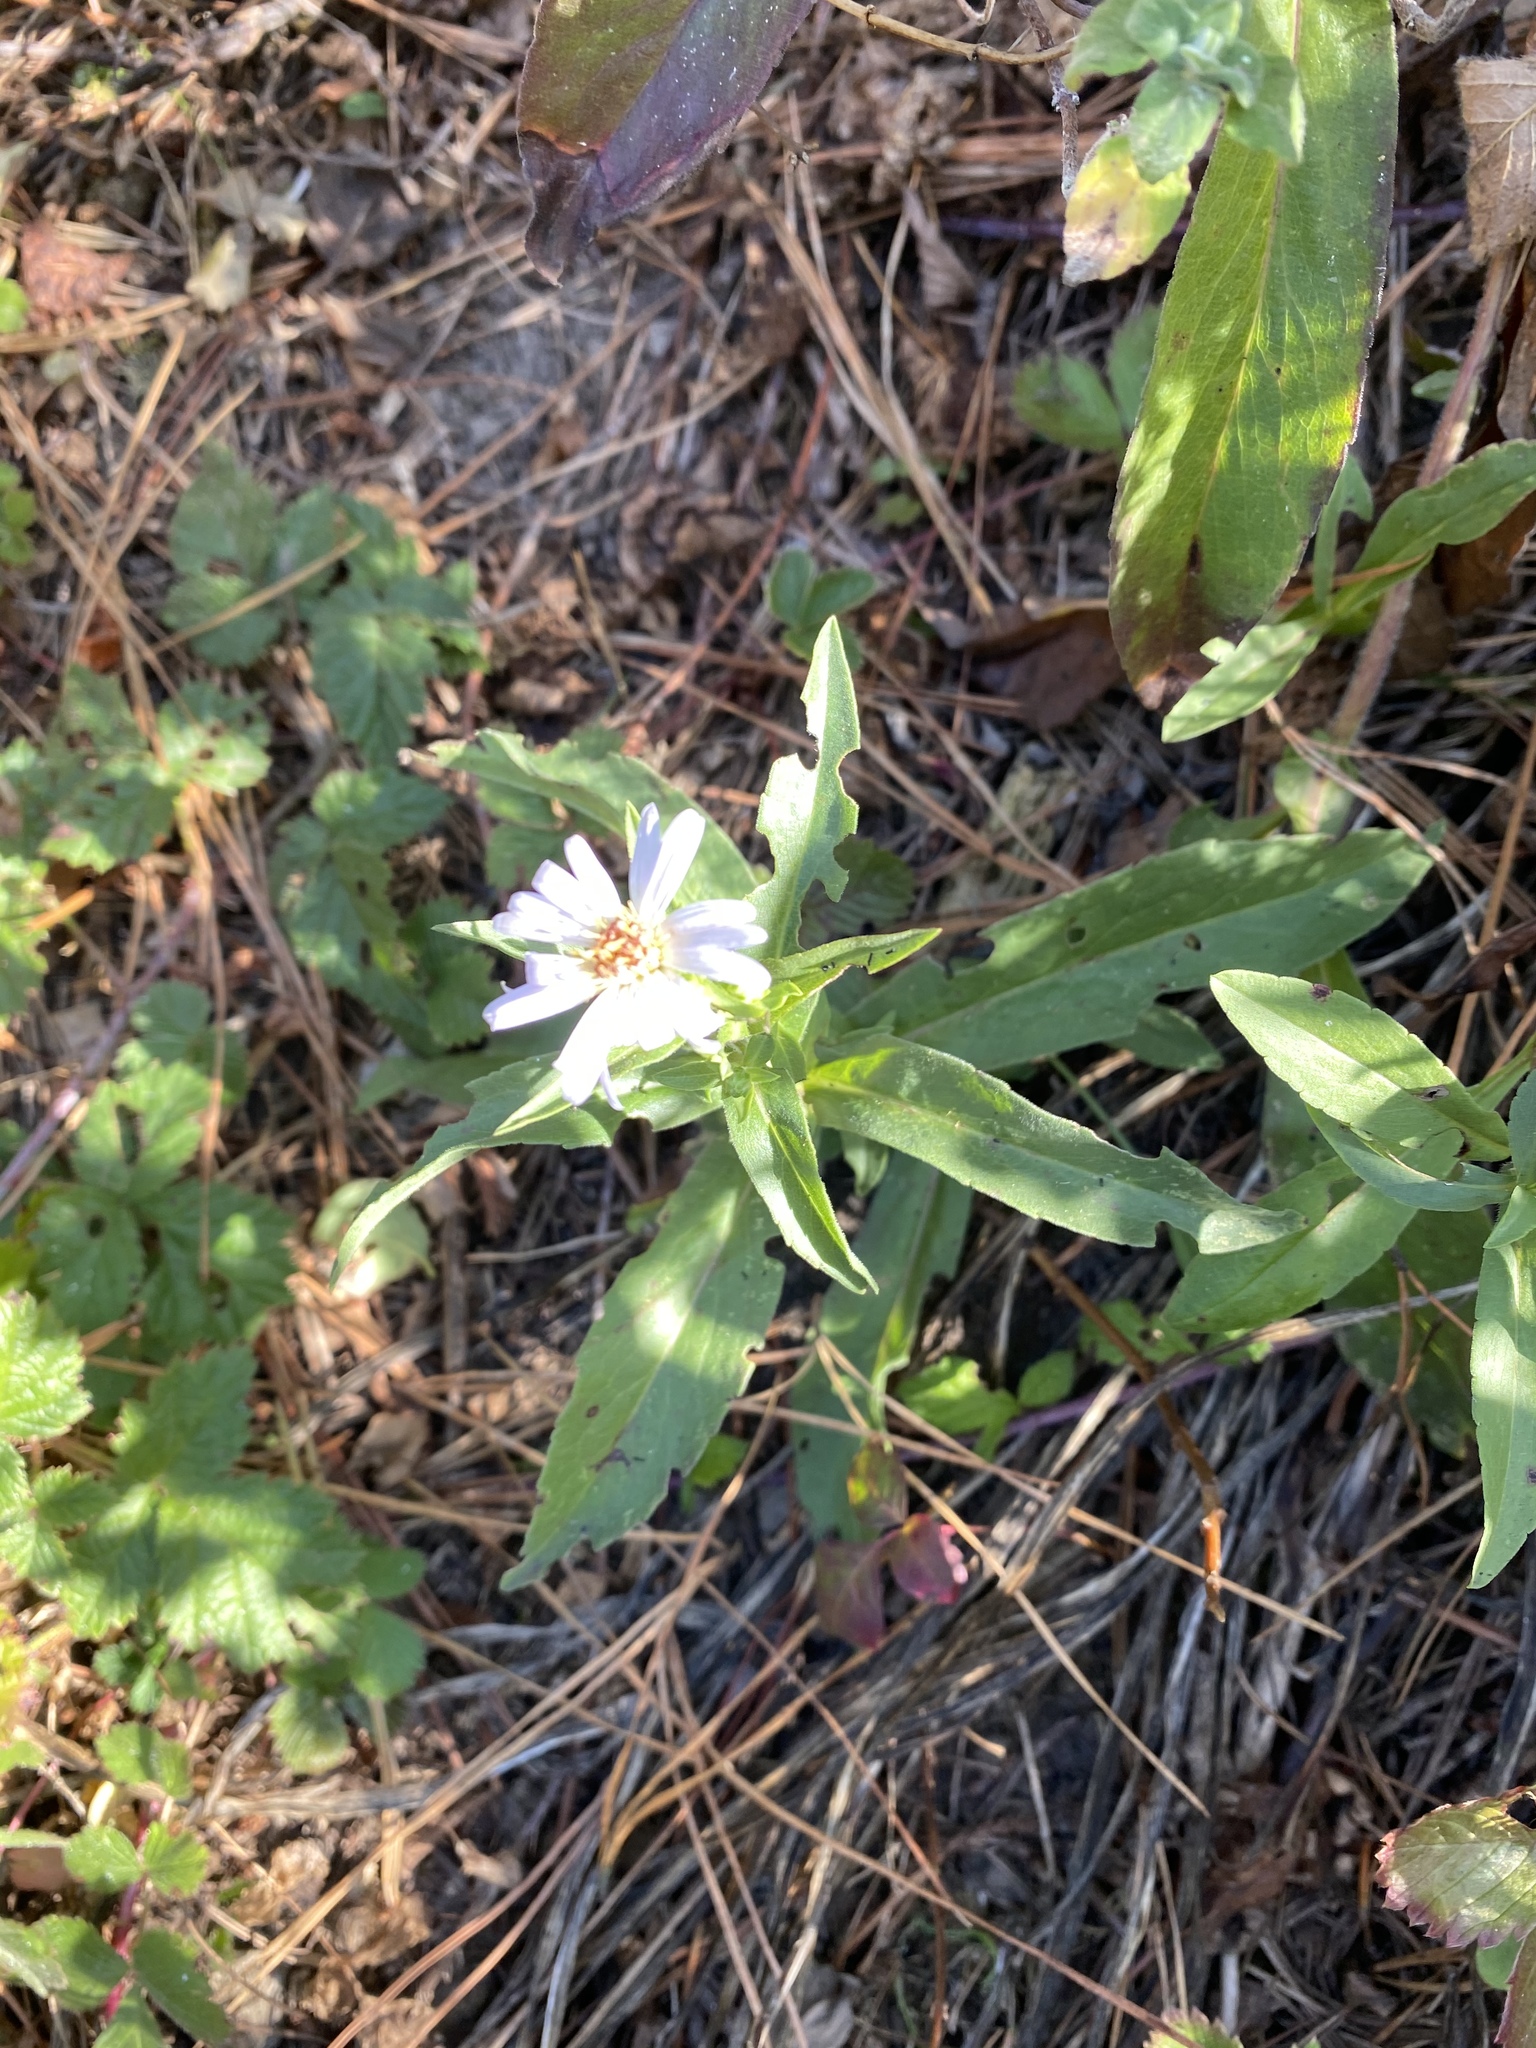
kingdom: Plantae
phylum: Tracheophyta
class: Magnoliopsida
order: Asterales
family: Asteraceae
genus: Symphyotrichum
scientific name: Symphyotrichum chilense
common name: Pacific aster
